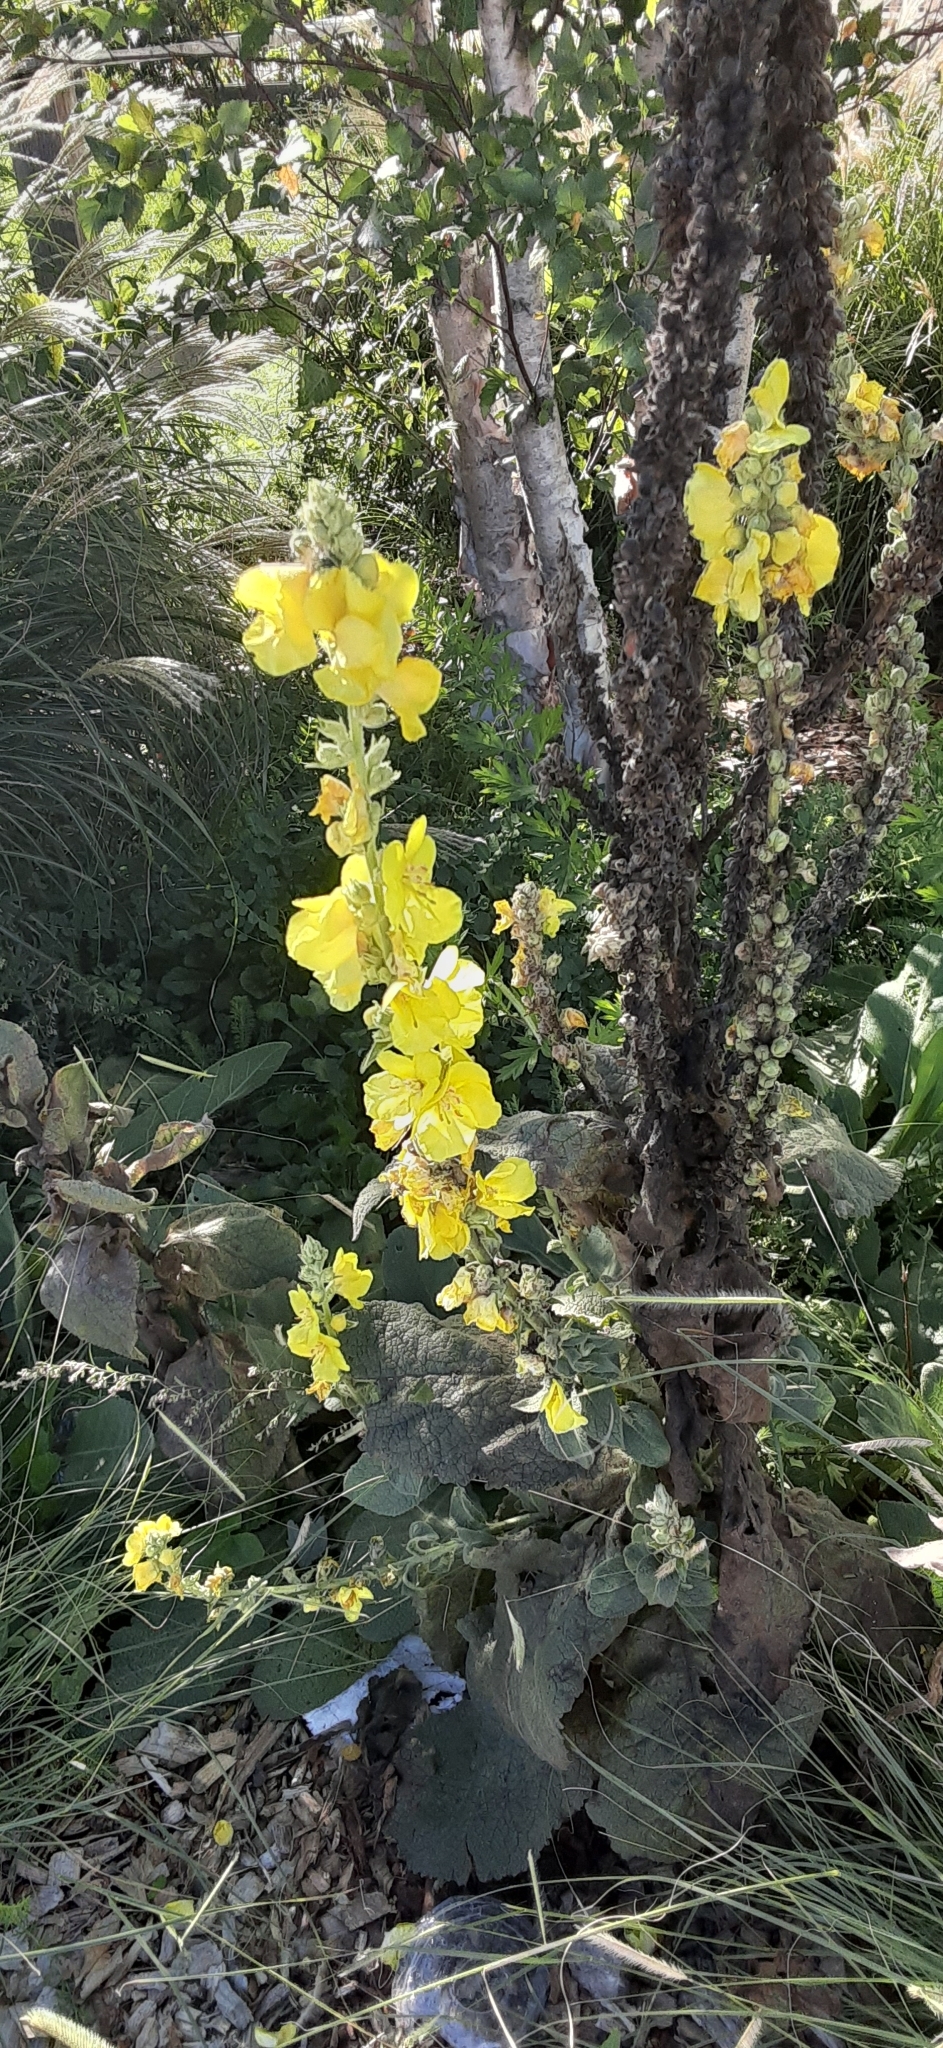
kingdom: Plantae
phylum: Tracheophyta
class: Magnoliopsida
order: Lamiales
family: Scrophulariaceae
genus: Verbascum
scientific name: Verbascum phlomoides
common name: Orange mullein
